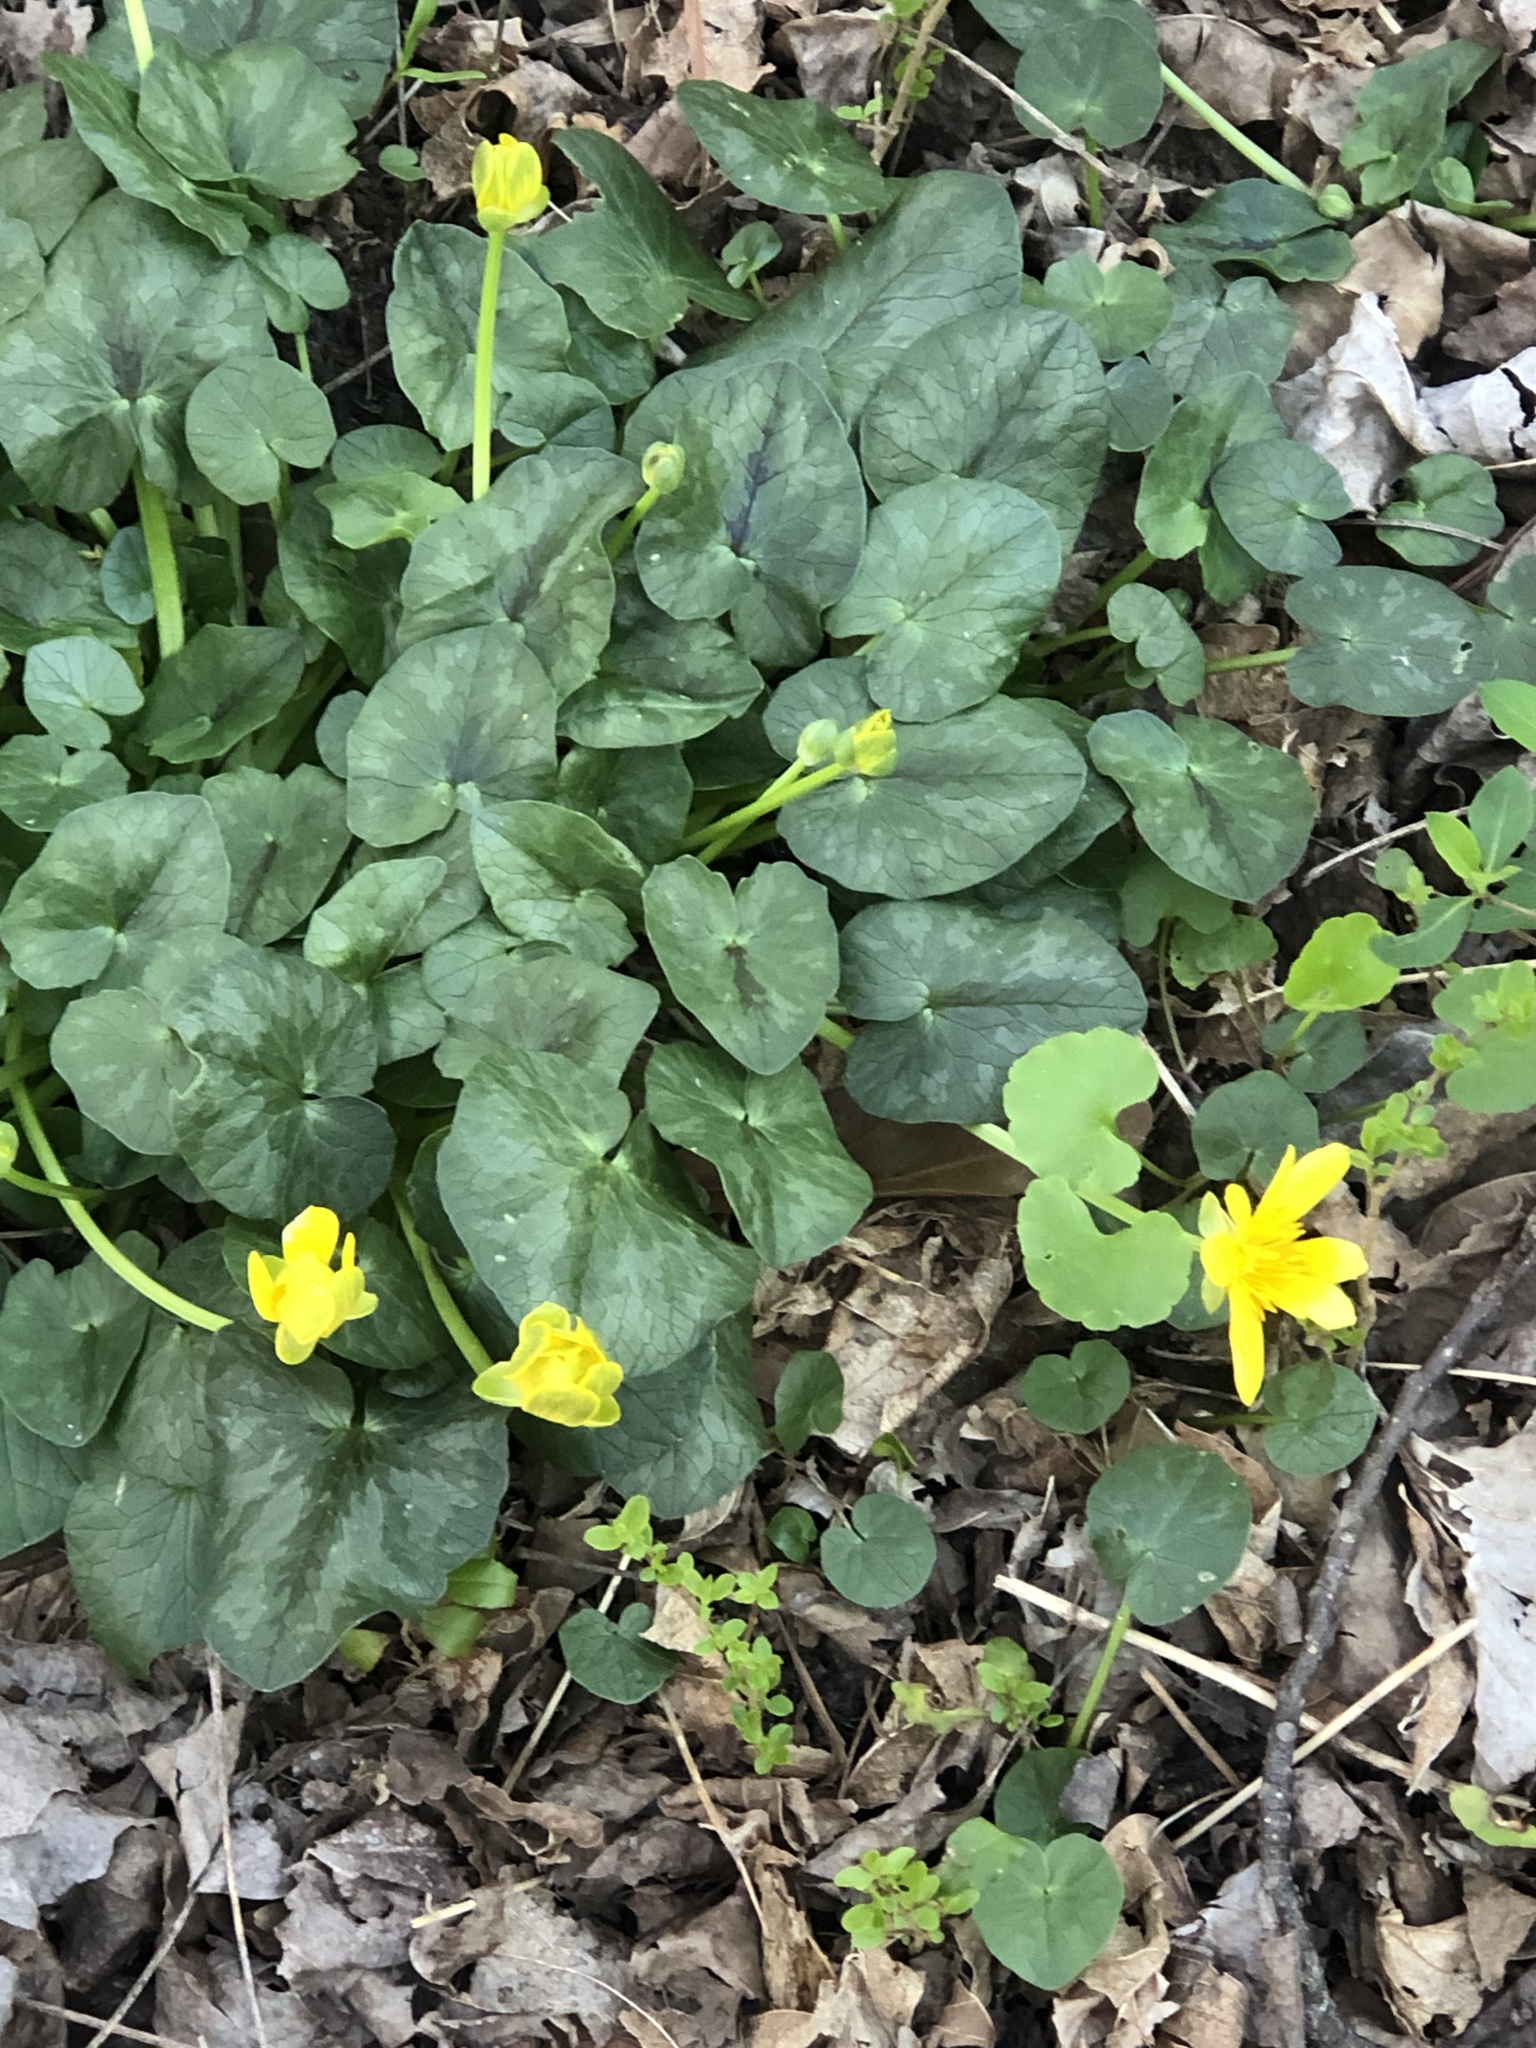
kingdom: Plantae
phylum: Tracheophyta
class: Magnoliopsida
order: Ranunculales
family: Ranunculaceae
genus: Ficaria
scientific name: Ficaria verna
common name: Lesser celandine
